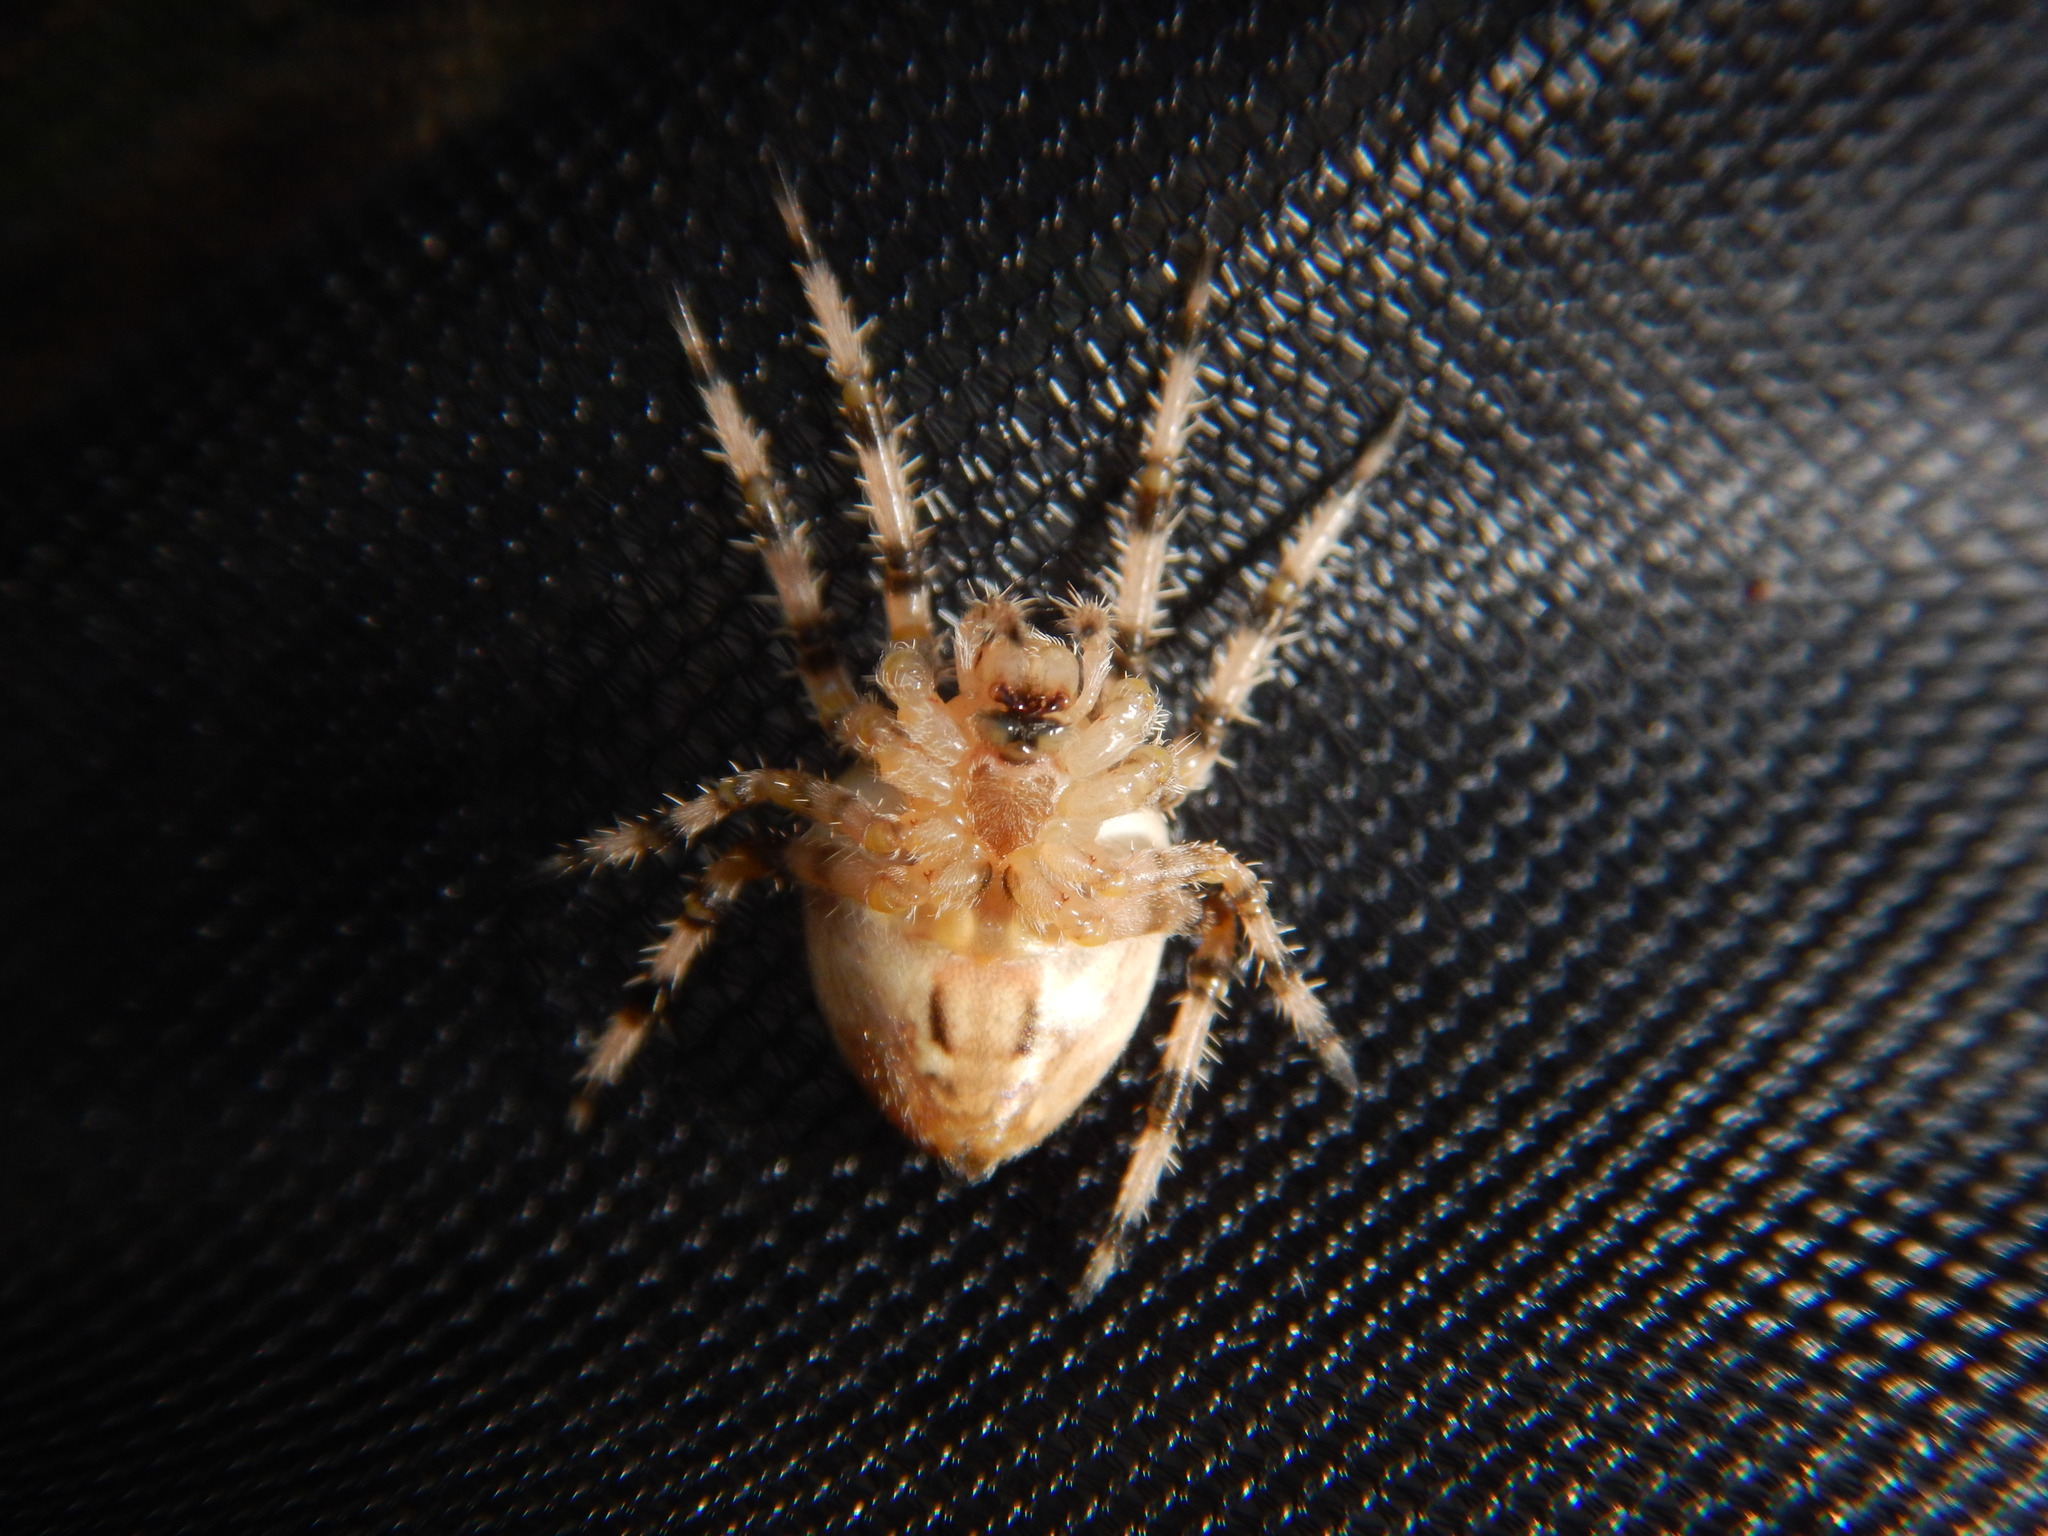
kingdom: Animalia
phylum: Arthropoda
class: Arachnida
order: Araneae
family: Araneidae
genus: Araneus
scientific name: Araneus pallidus
